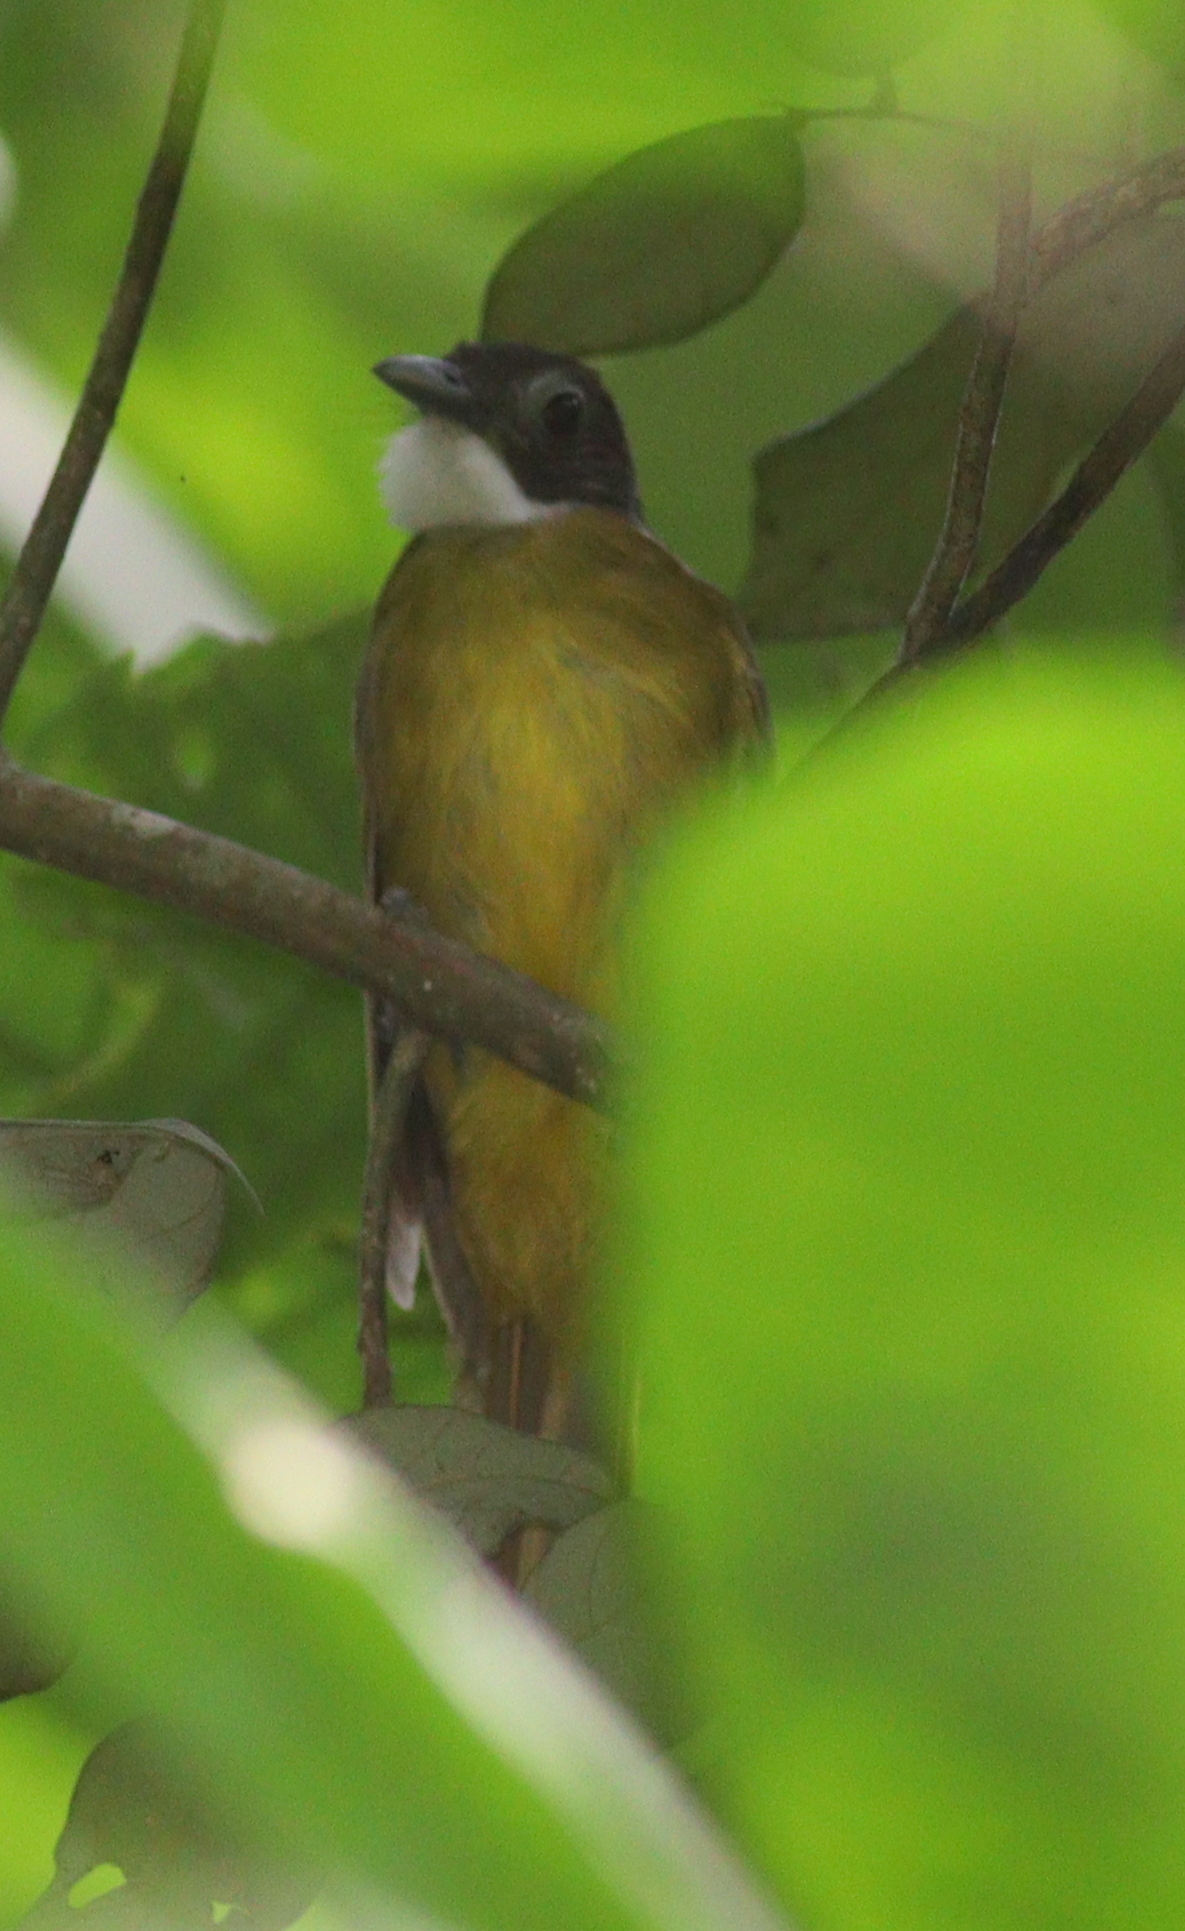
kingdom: Animalia
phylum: Chordata
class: Aves
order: Passeriformes
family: Pycnonotidae
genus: Criniger
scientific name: Criniger calurus
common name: Red-tailed greenbul
